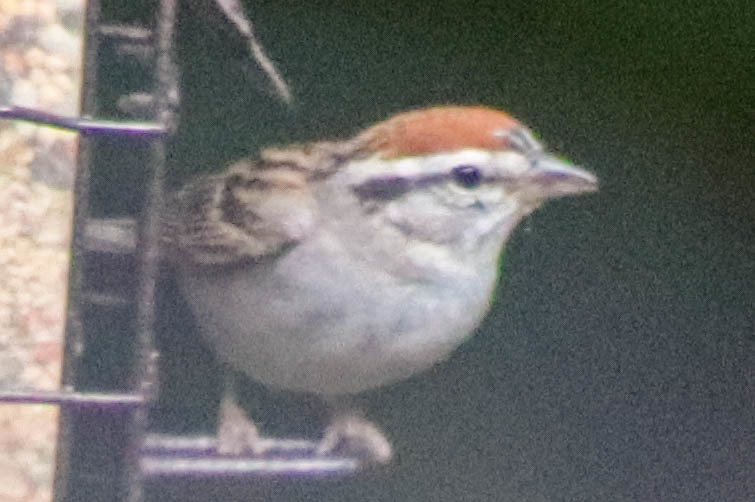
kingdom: Animalia
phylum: Chordata
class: Aves
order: Passeriformes
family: Passerellidae
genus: Spizella
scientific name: Spizella passerina
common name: Chipping sparrow
